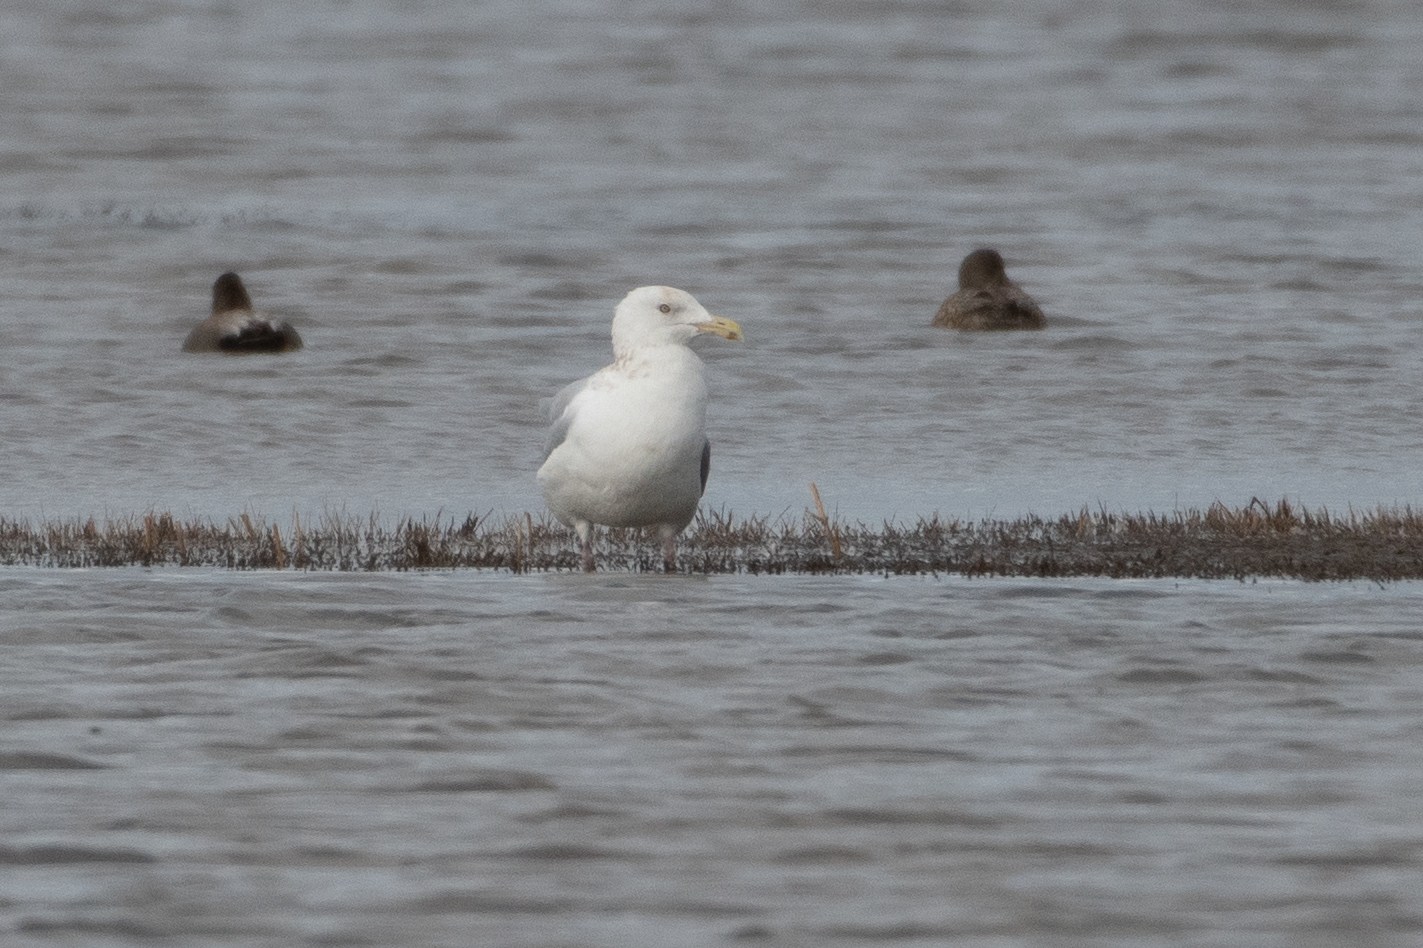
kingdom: Animalia
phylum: Chordata
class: Aves
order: Charadriiformes
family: Laridae
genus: Larus
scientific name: Larus argentatus
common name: Herring gull
